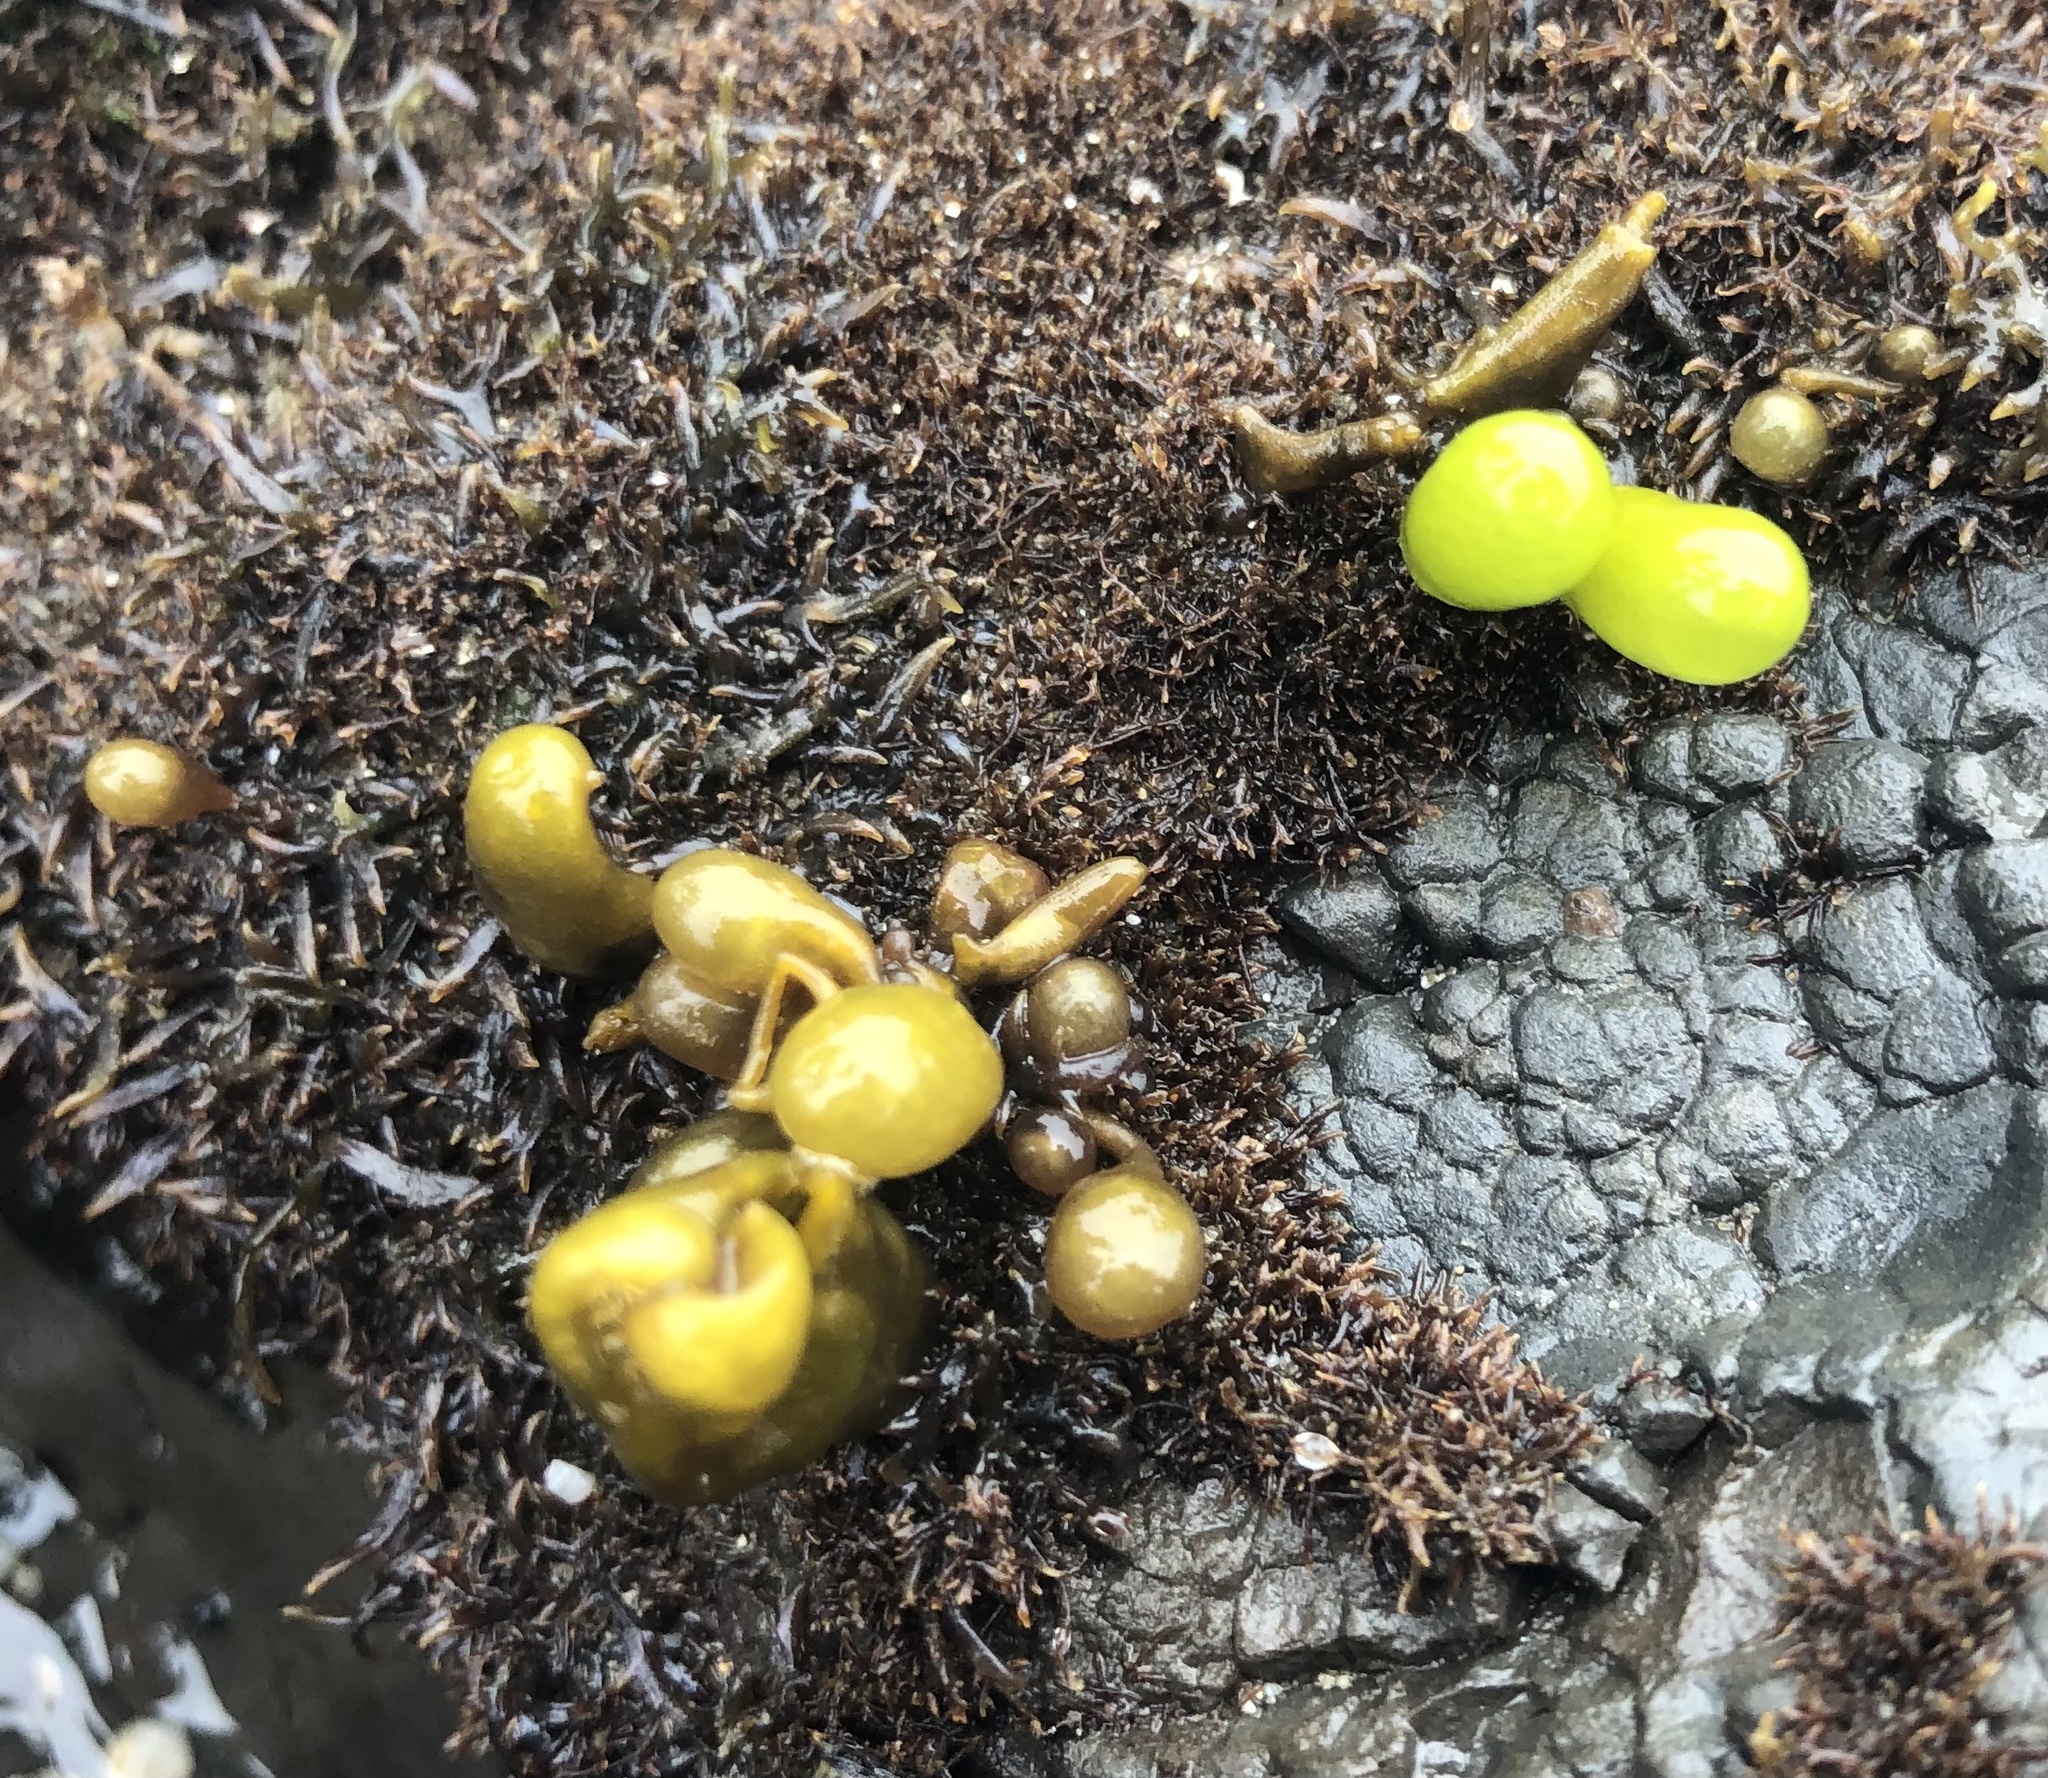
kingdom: Plantae
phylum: Rhodophyta
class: Florideophyceae
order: Palmariales
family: Palmariaceae
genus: Halosaccion
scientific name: Halosaccion glandiforme
